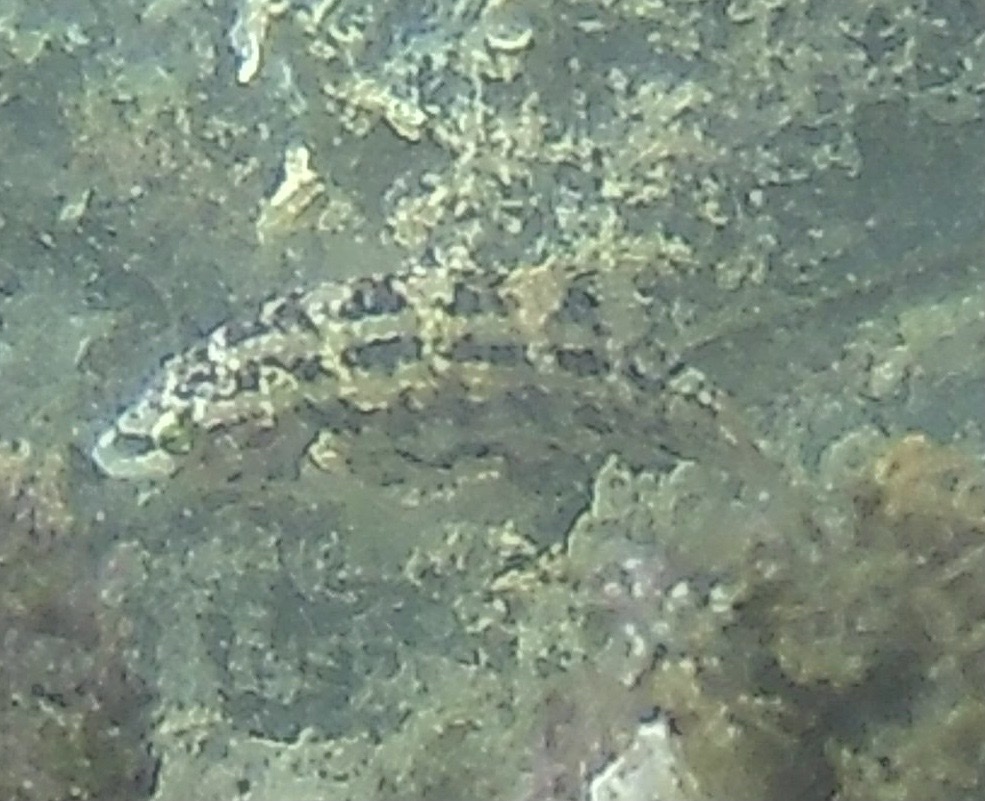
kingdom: Animalia
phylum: Chordata
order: Perciformes
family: Labridae
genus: Symphodus
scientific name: Symphodus roissali
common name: Five-spotted wrasse
